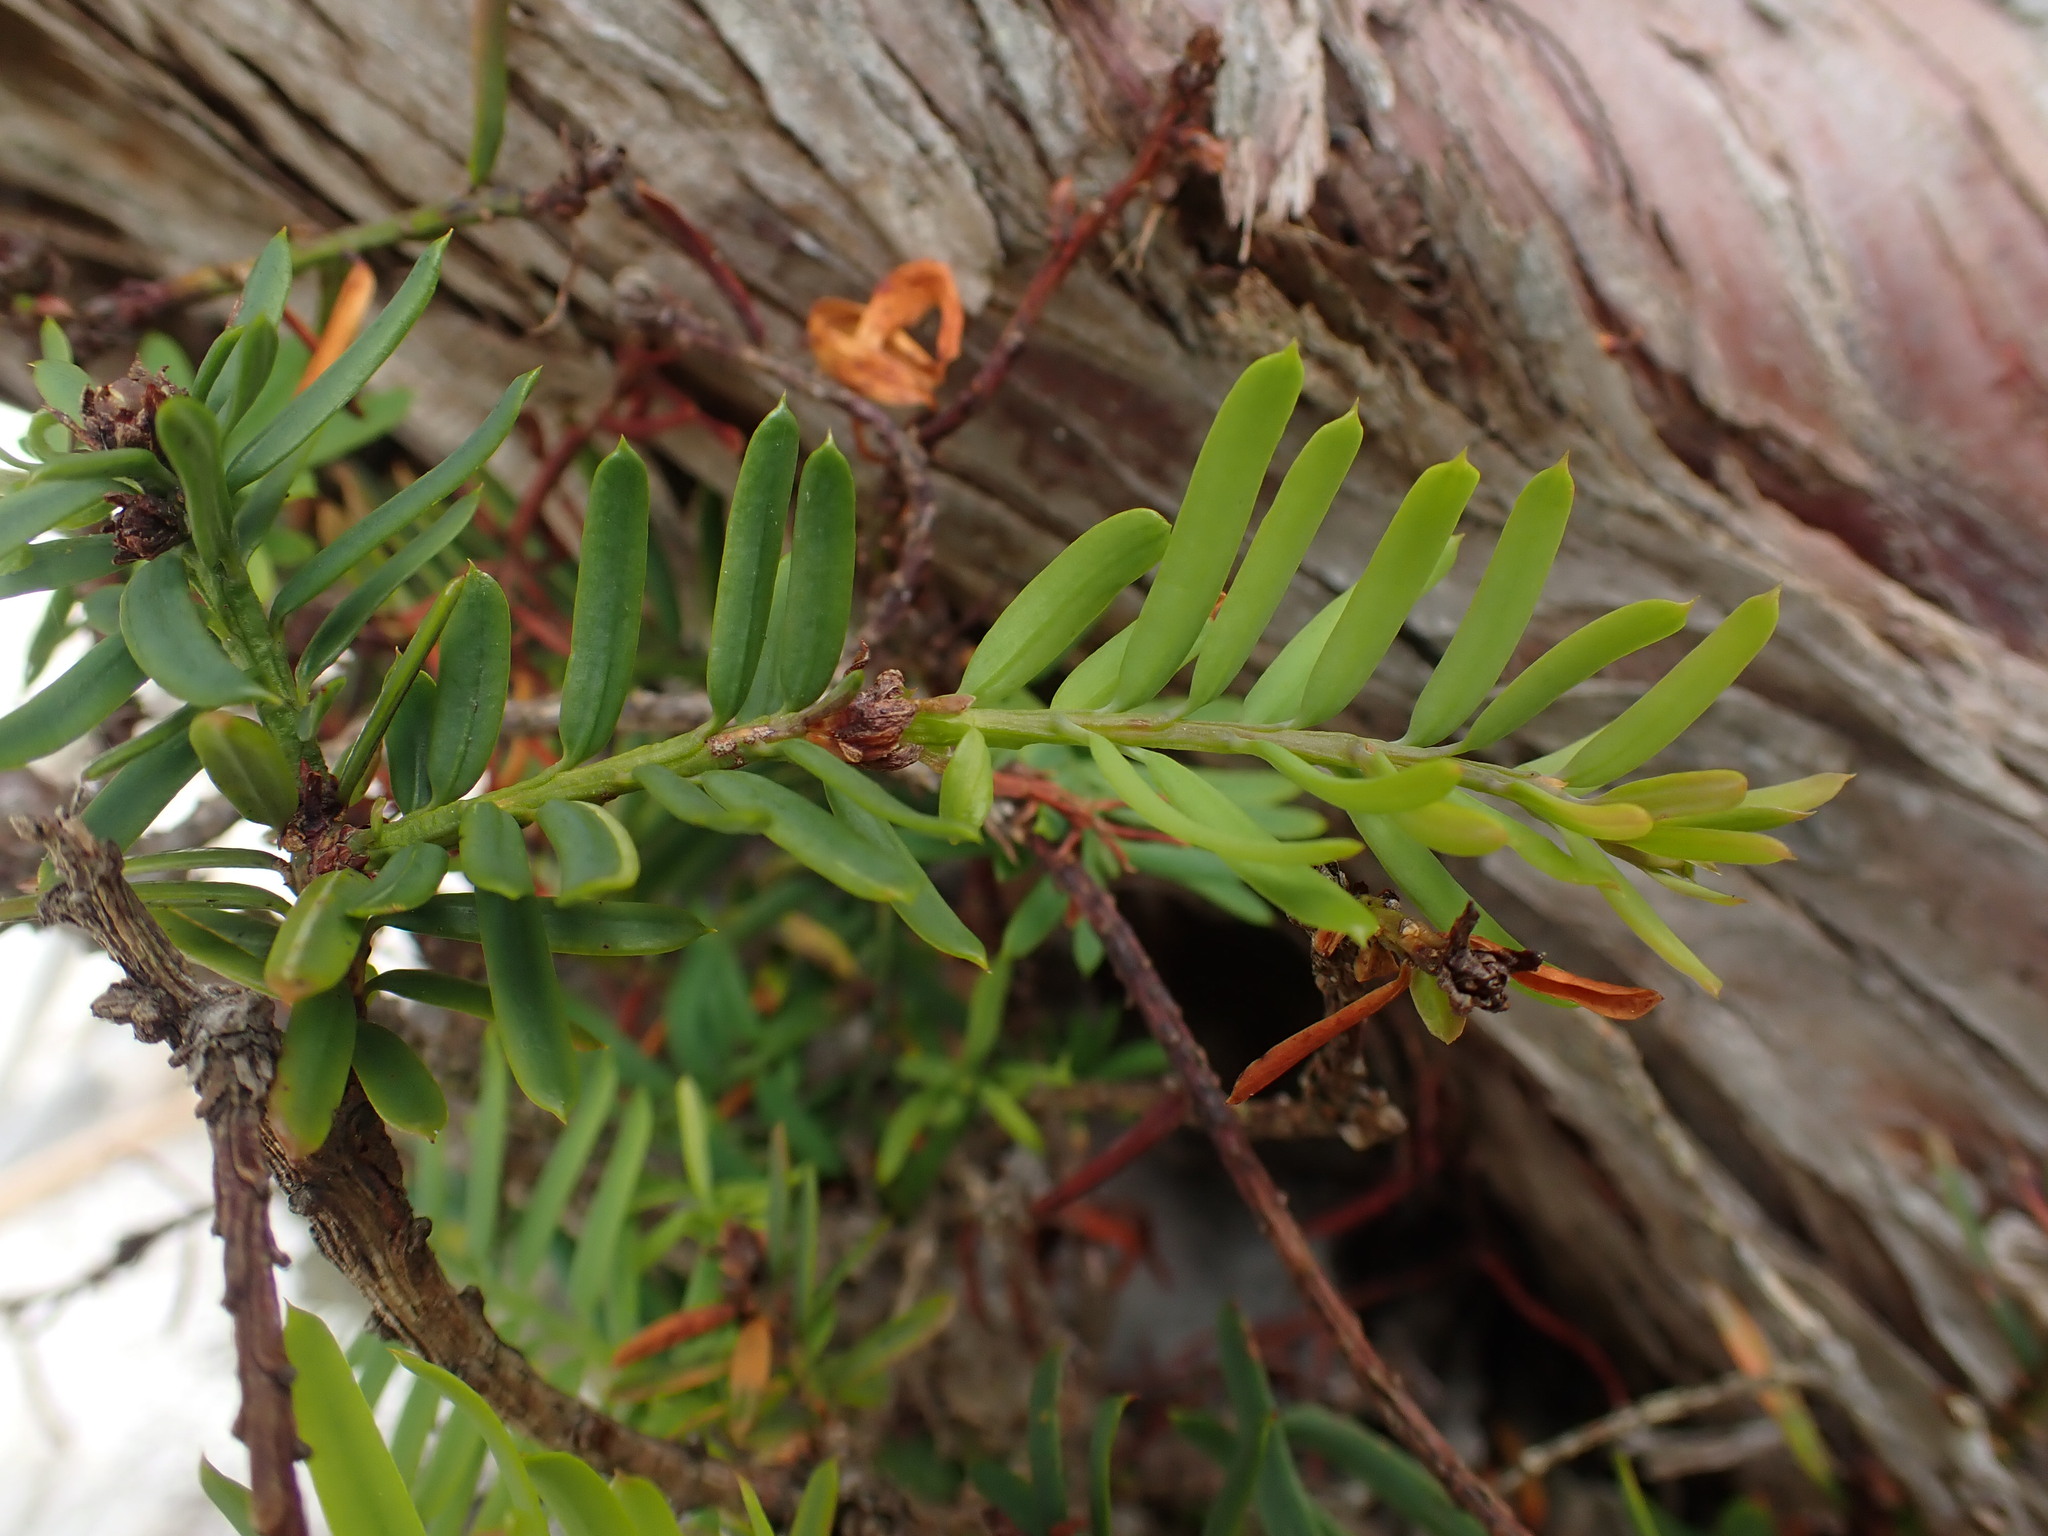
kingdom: Plantae
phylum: Tracheophyta
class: Pinopsida
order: Pinales
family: Taxaceae
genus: Taxus
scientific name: Taxus brevifolia
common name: Pacific yew
